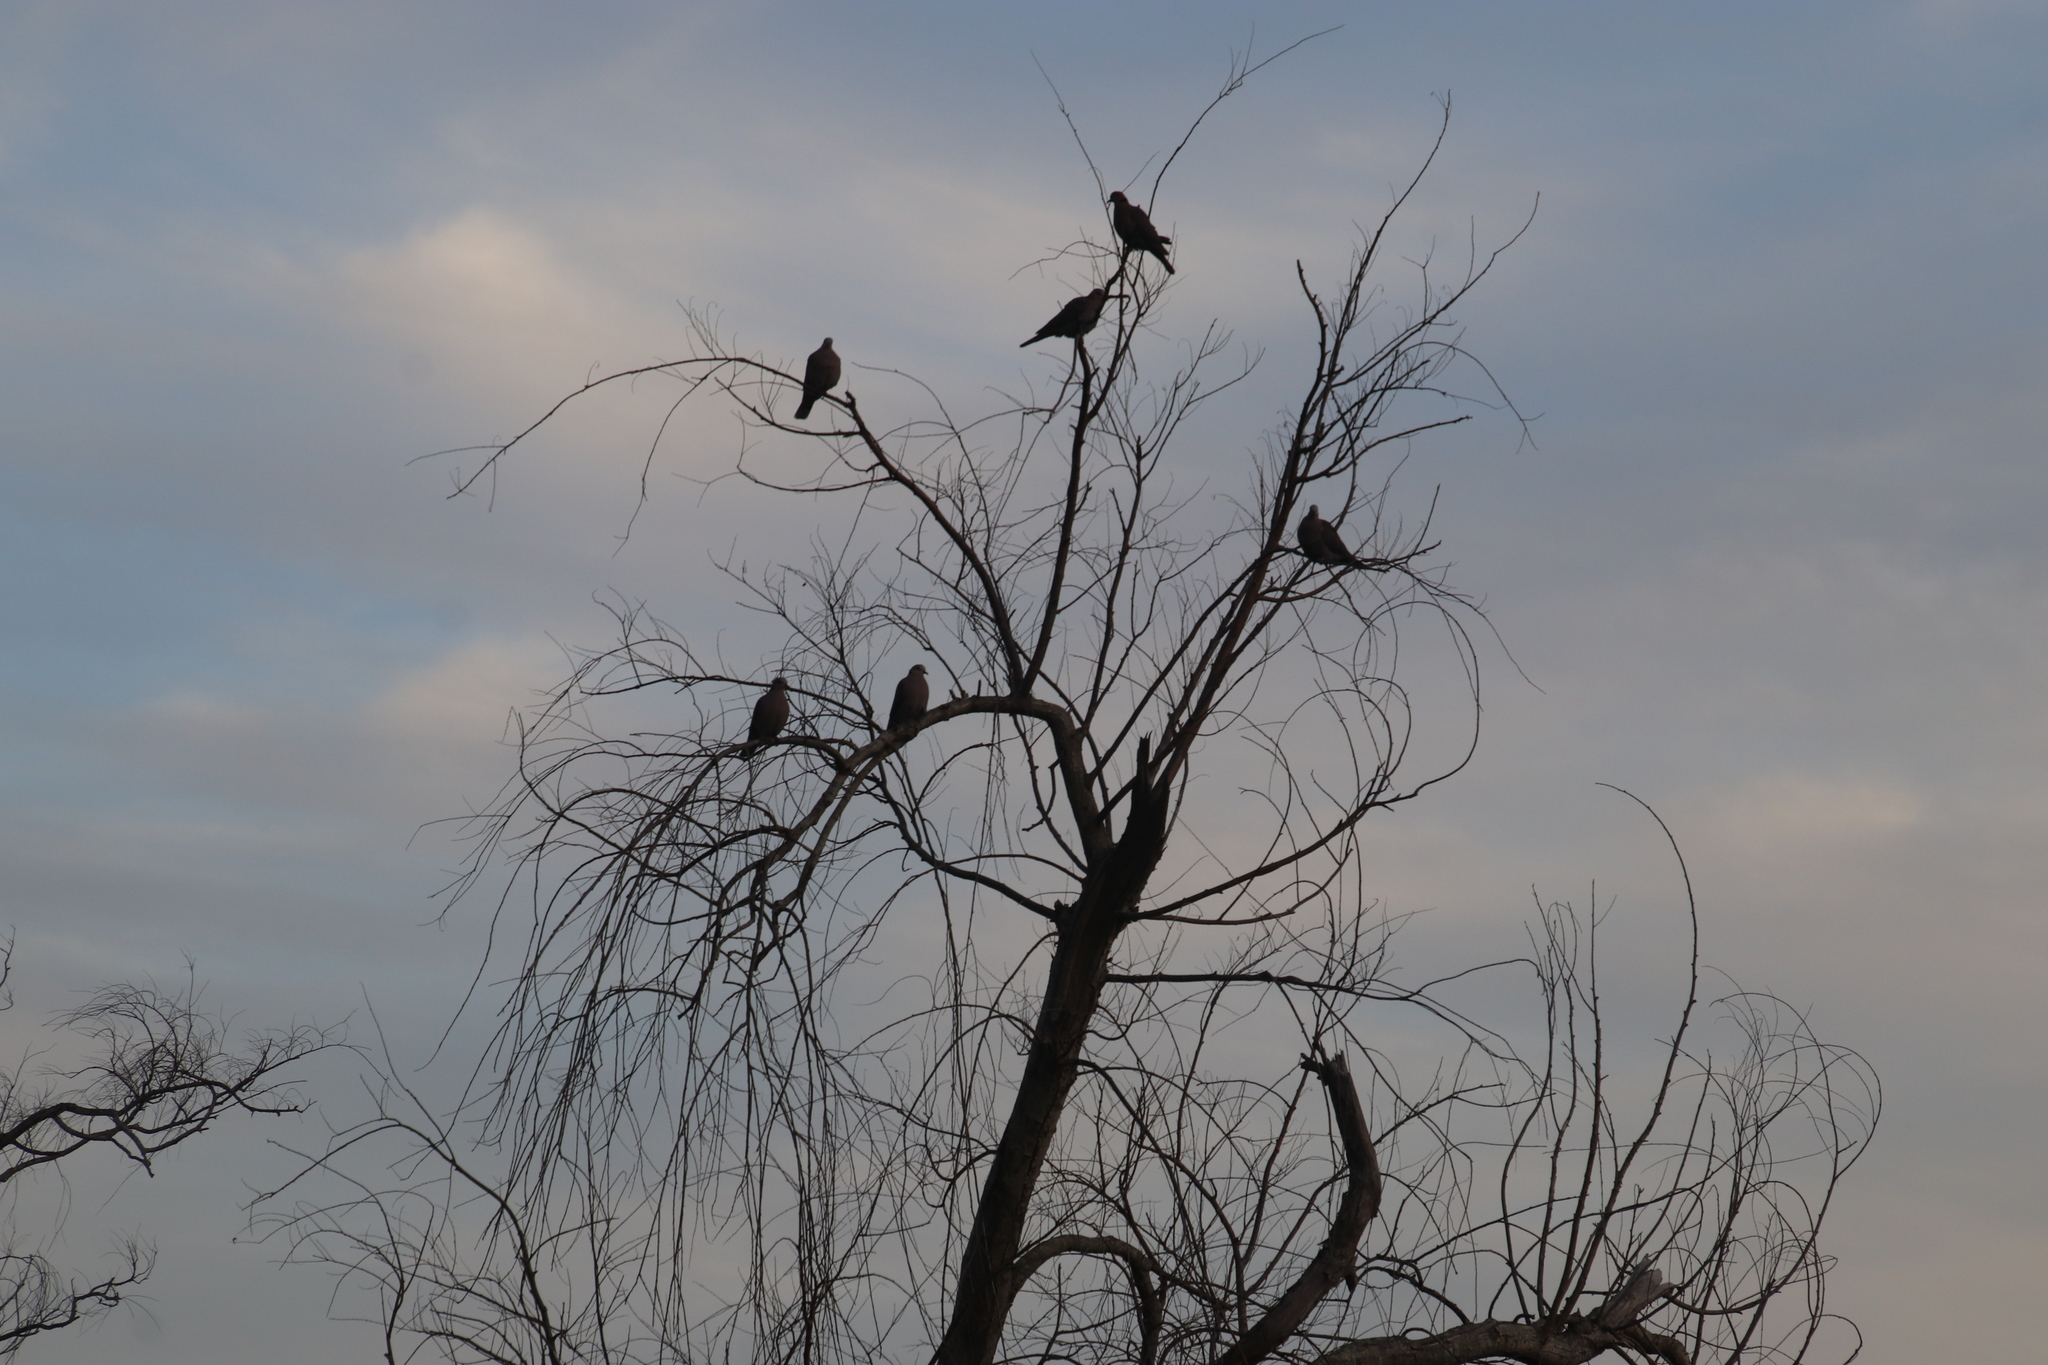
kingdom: Animalia
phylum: Chordata
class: Aves
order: Columbiformes
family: Columbidae
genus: Streptopelia
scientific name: Streptopelia semitorquata
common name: Red-eyed dove
